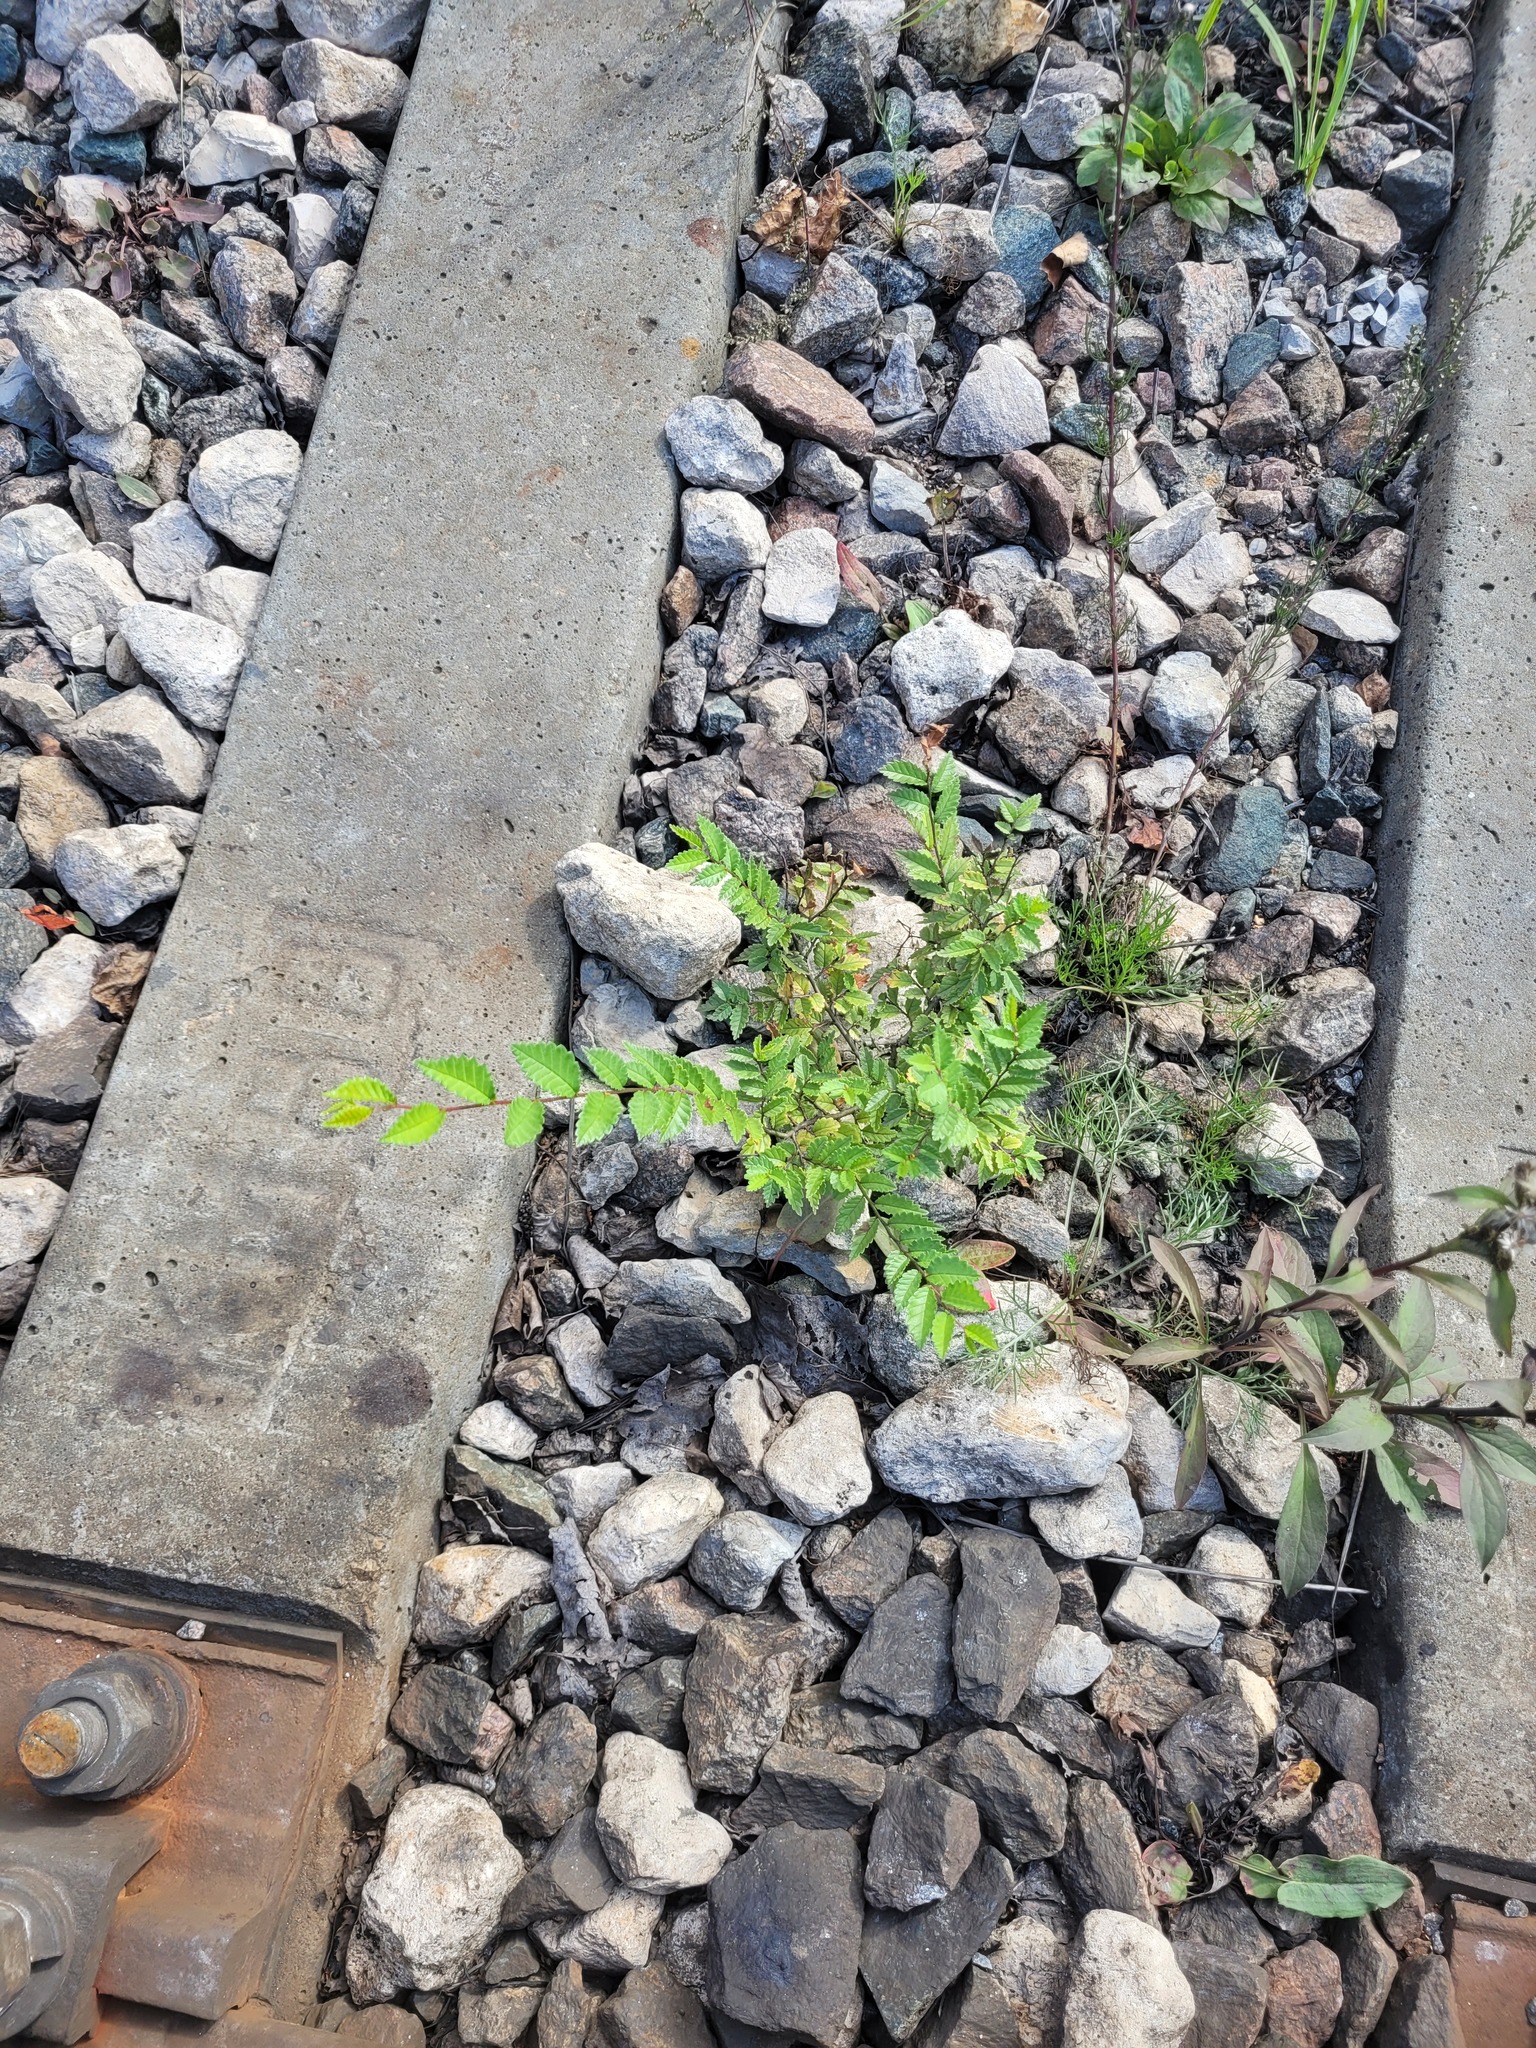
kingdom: Plantae
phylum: Tracheophyta
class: Magnoliopsida
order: Rosales
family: Ulmaceae
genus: Ulmus
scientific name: Ulmus pumila
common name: Siberian elm
